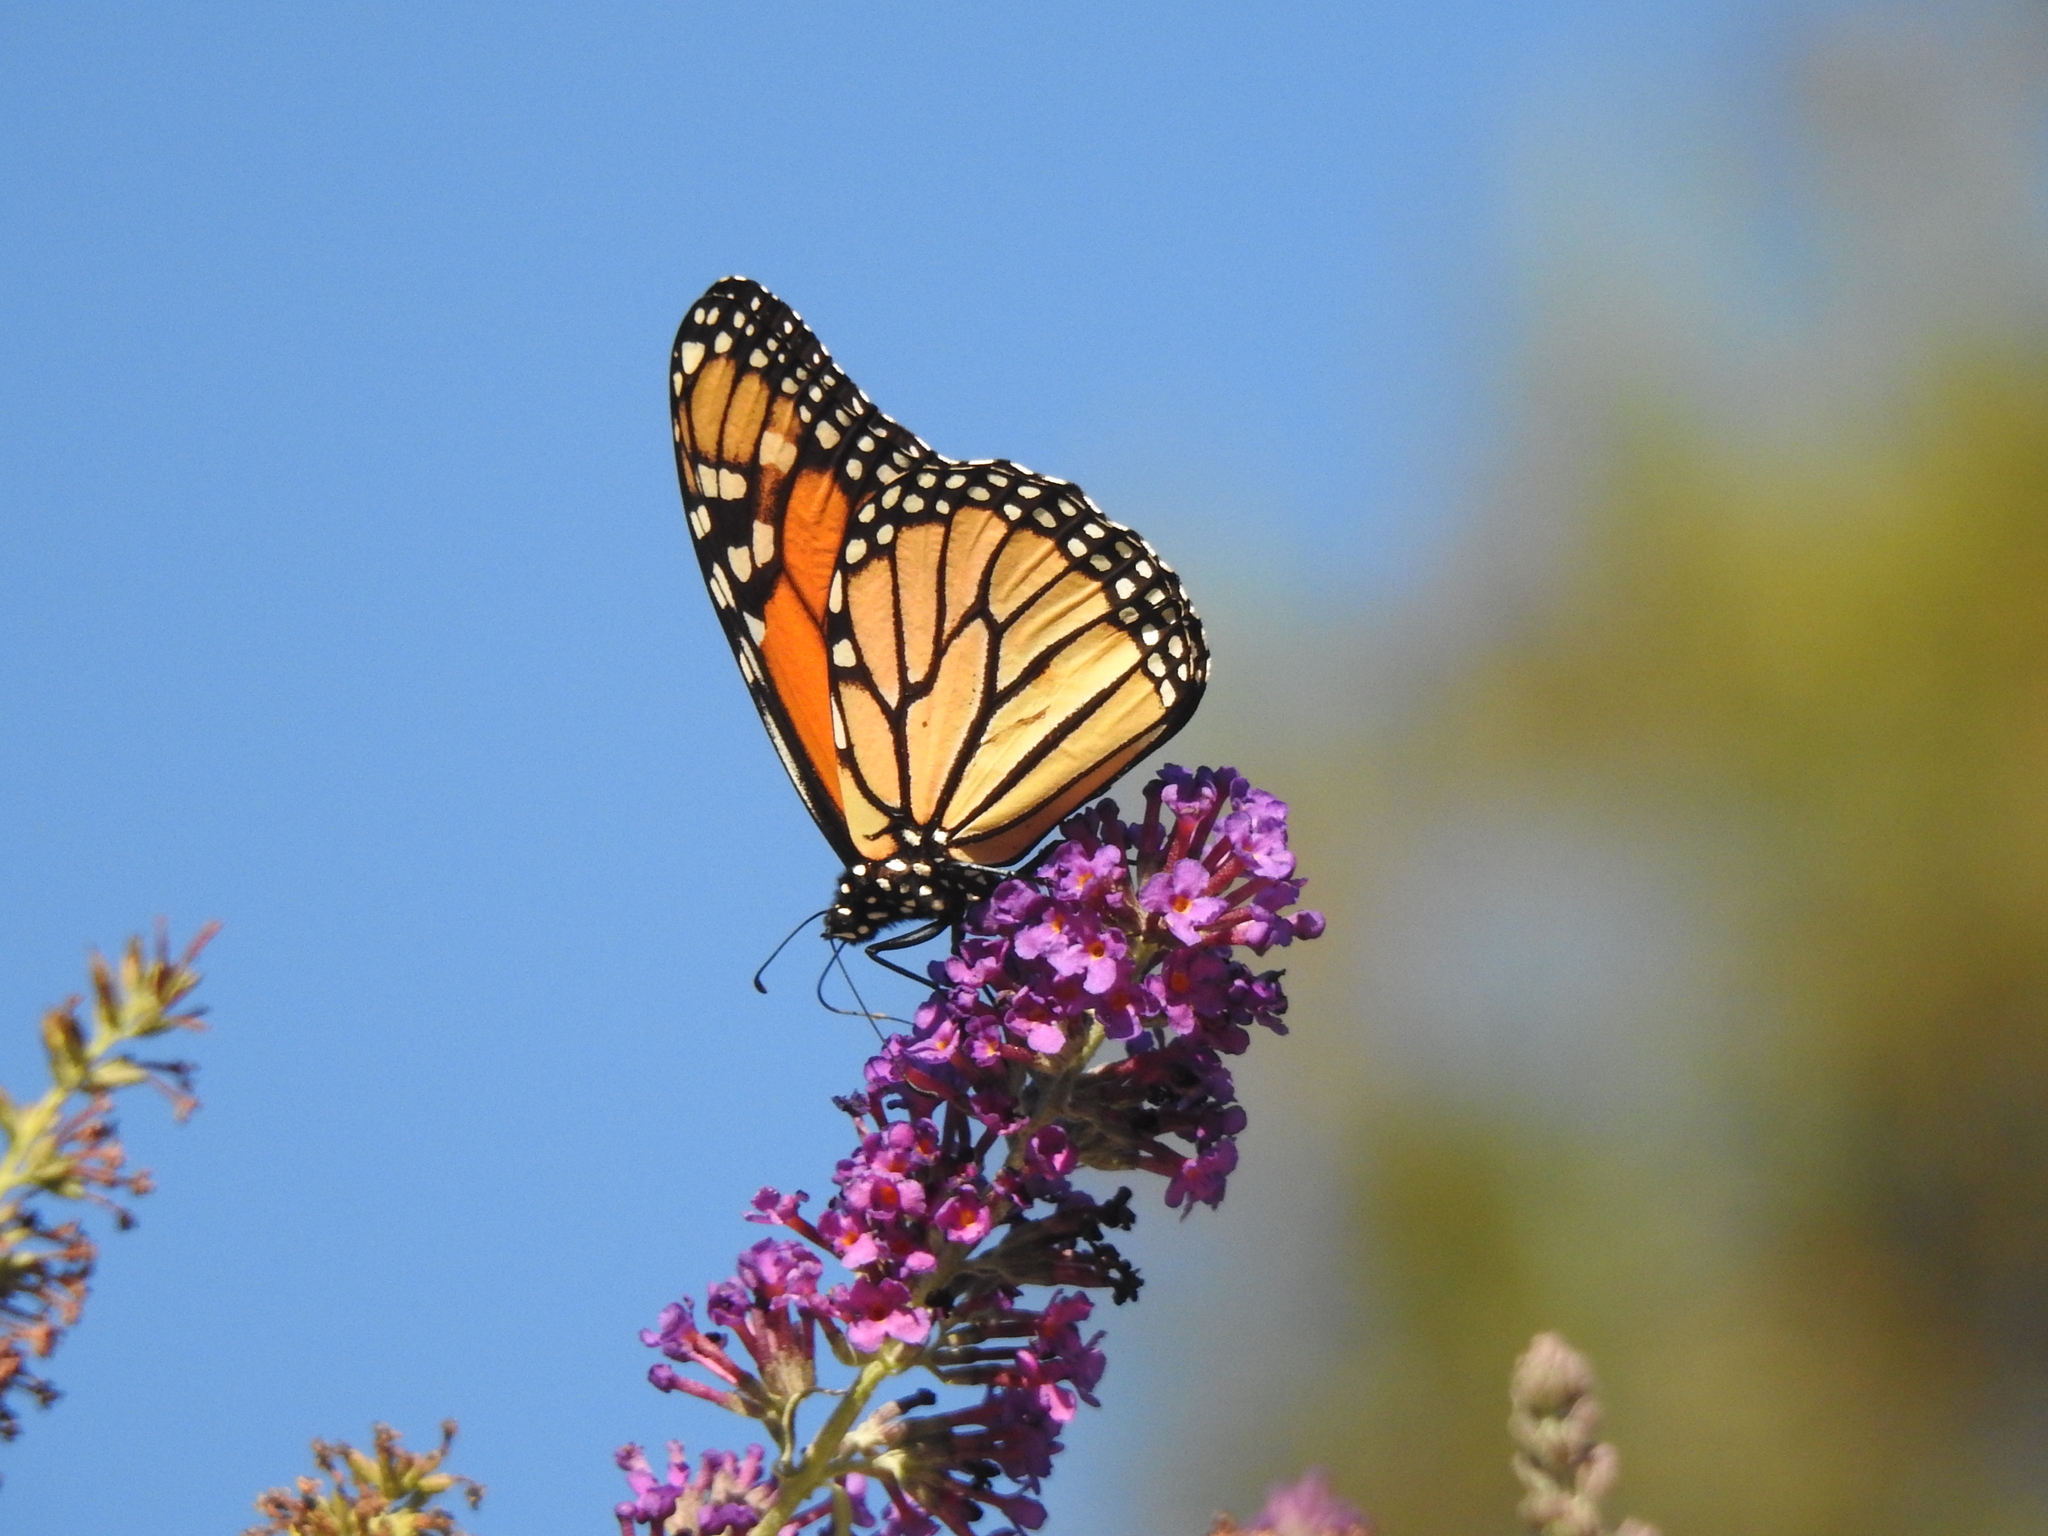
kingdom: Animalia
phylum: Arthropoda
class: Insecta
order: Lepidoptera
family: Nymphalidae
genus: Danaus
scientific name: Danaus plexippus
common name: Monarch
